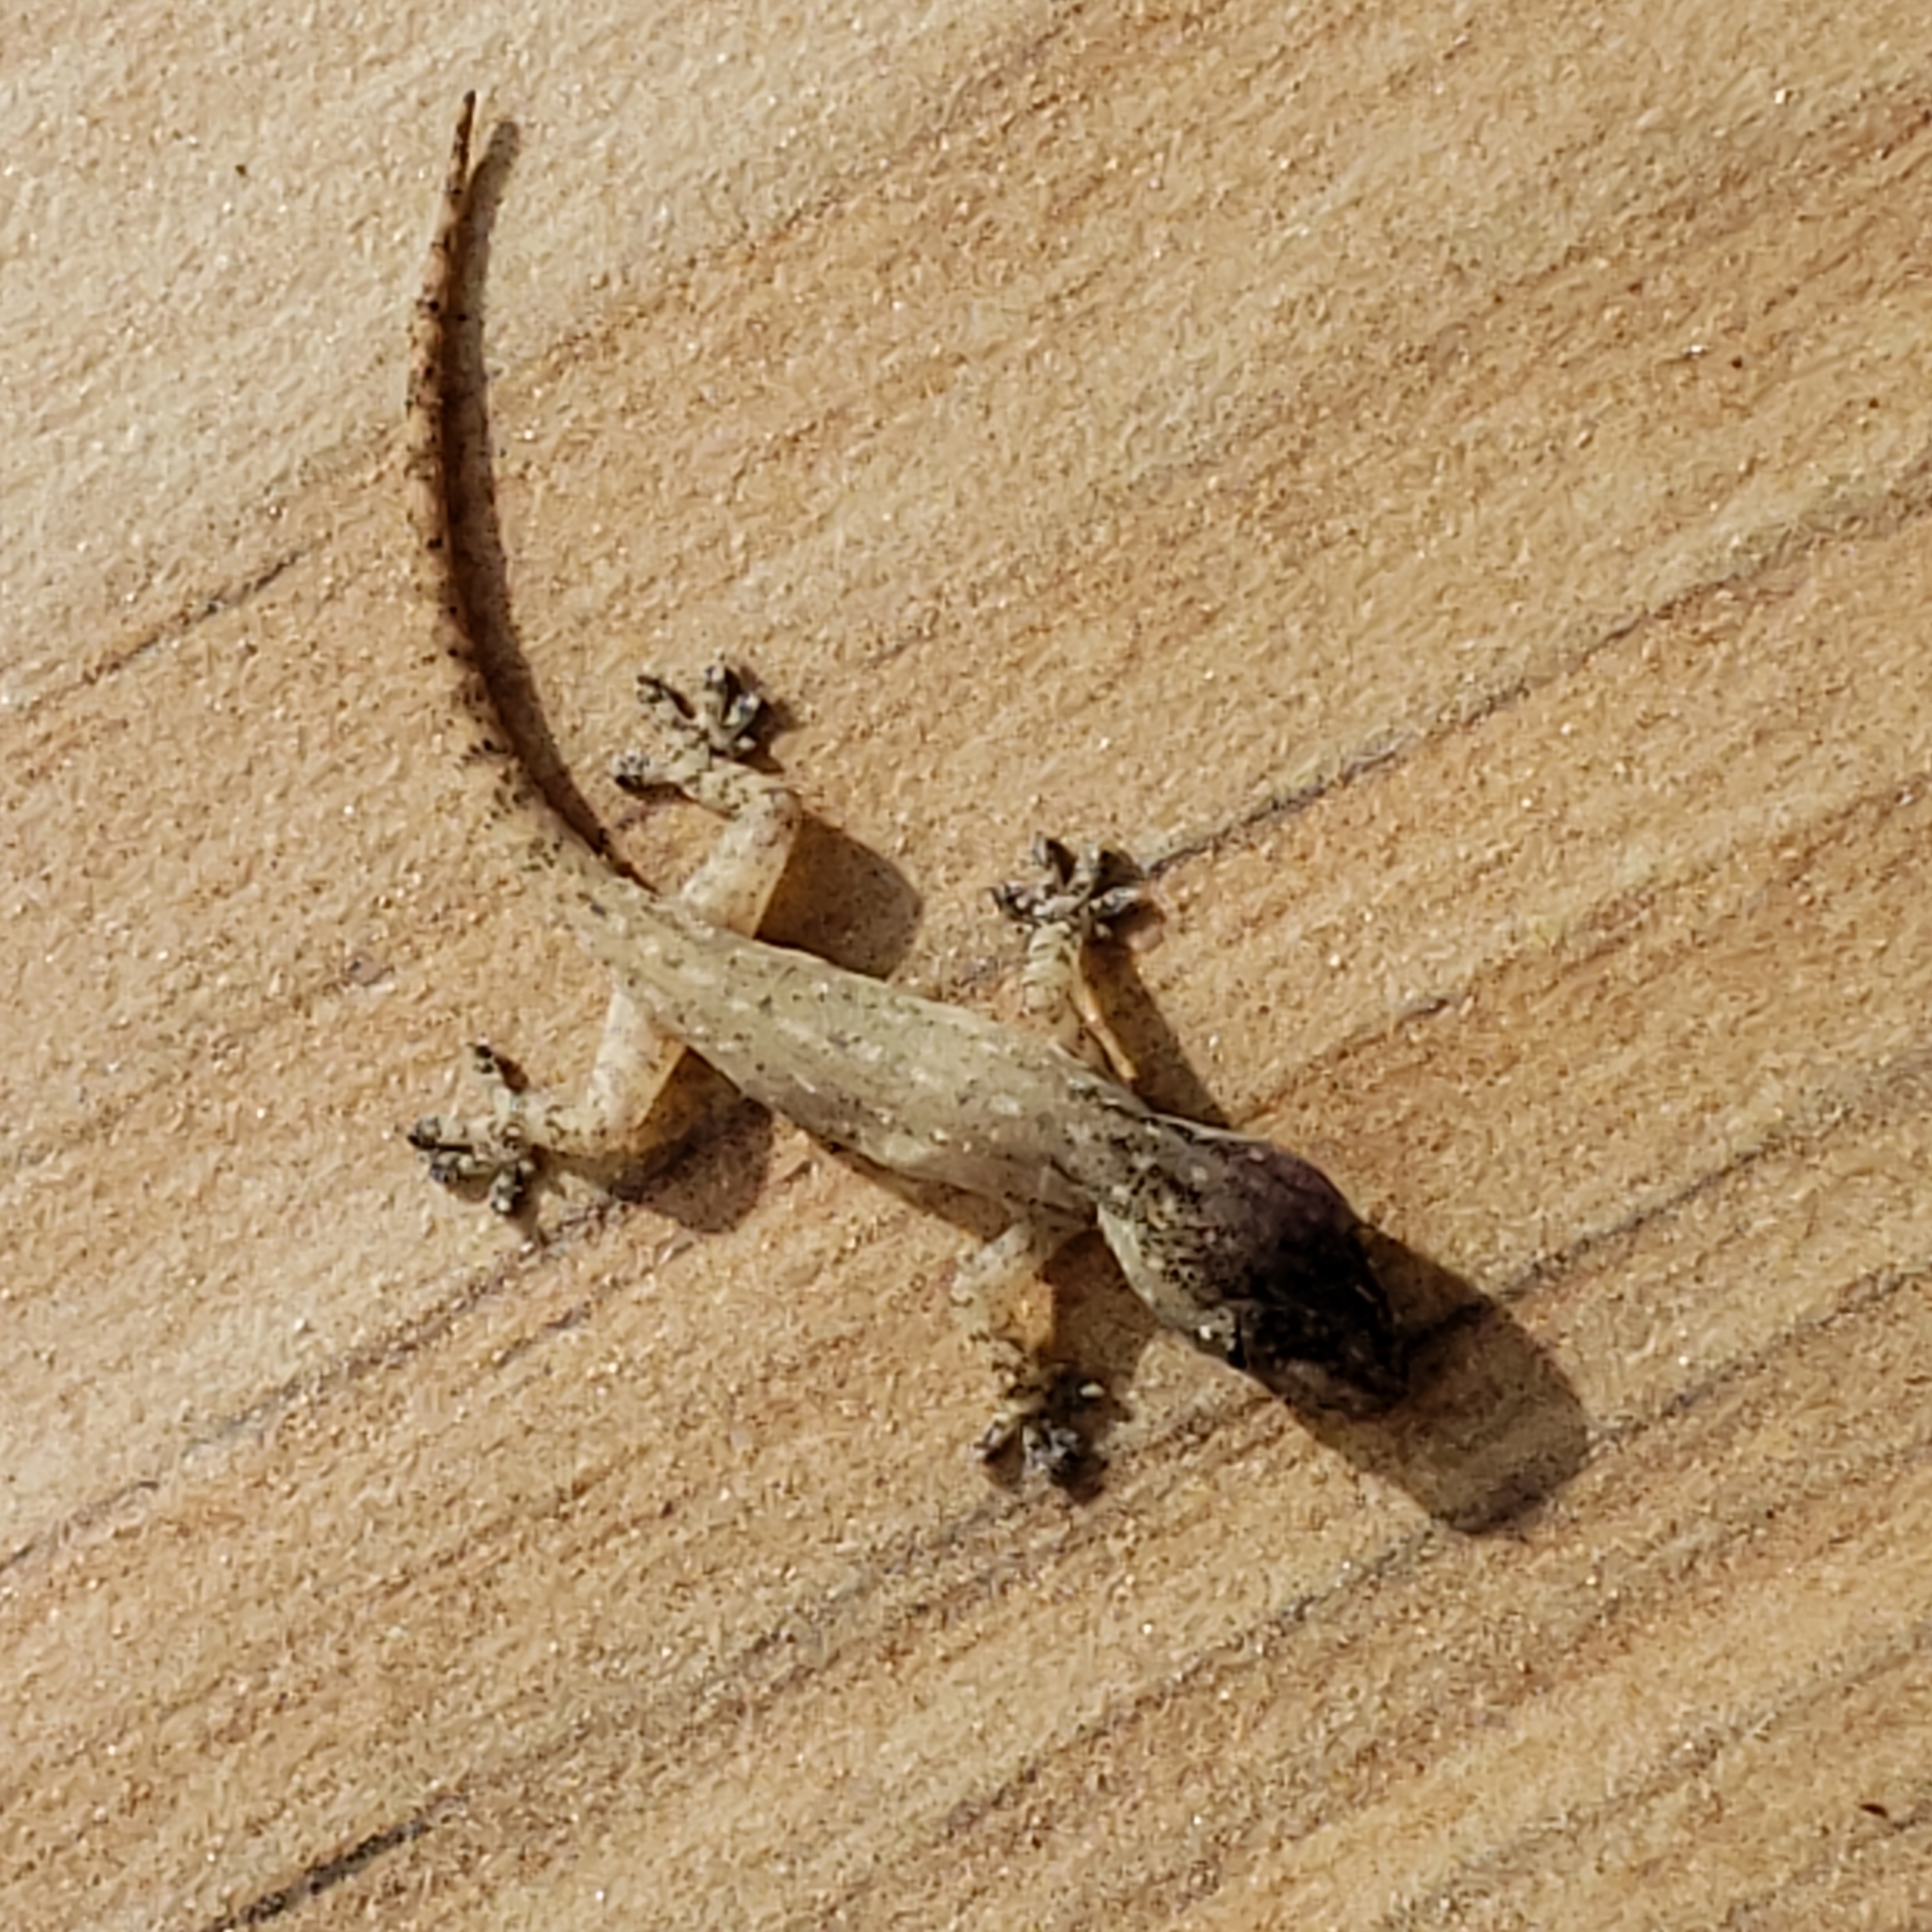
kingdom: Animalia
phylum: Chordata
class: Squamata
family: Gekkonidae
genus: Hemidactylus
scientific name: Hemidactylus frenatus
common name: Common house gecko
